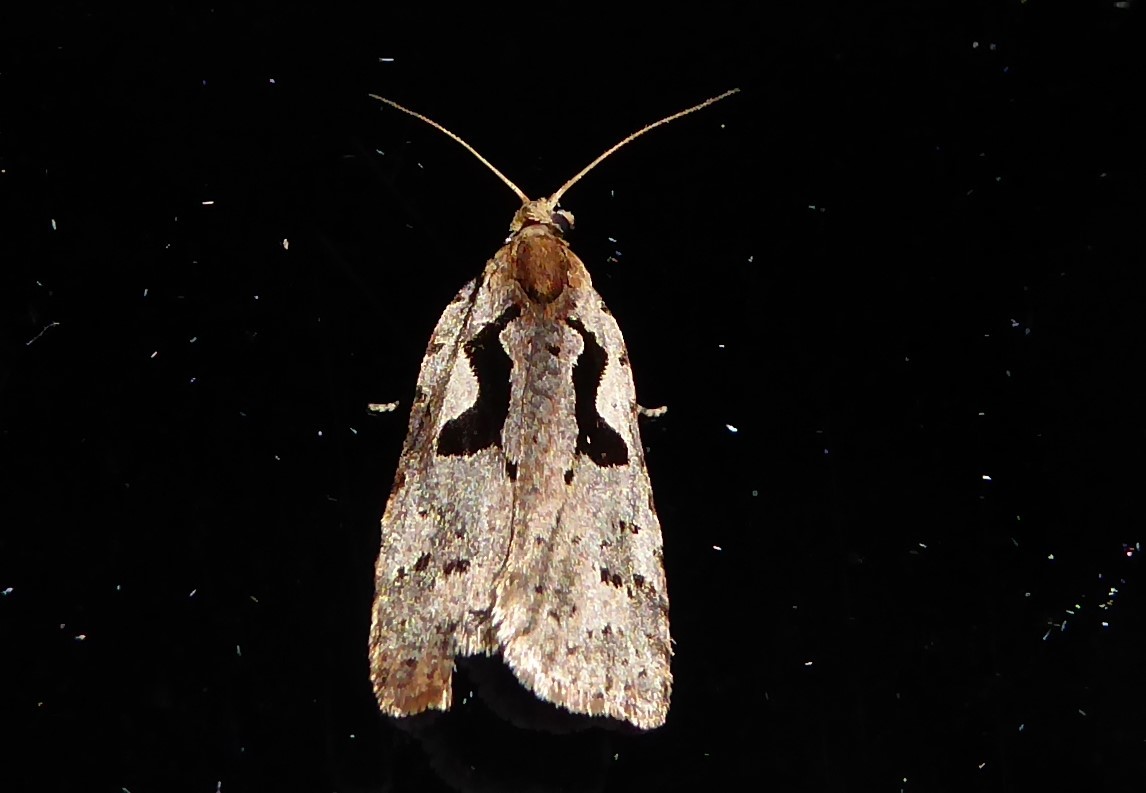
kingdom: Animalia
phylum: Arthropoda
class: Insecta
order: Lepidoptera
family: Tortricidae
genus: Cnephasia
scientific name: Cnephasia jactatana
